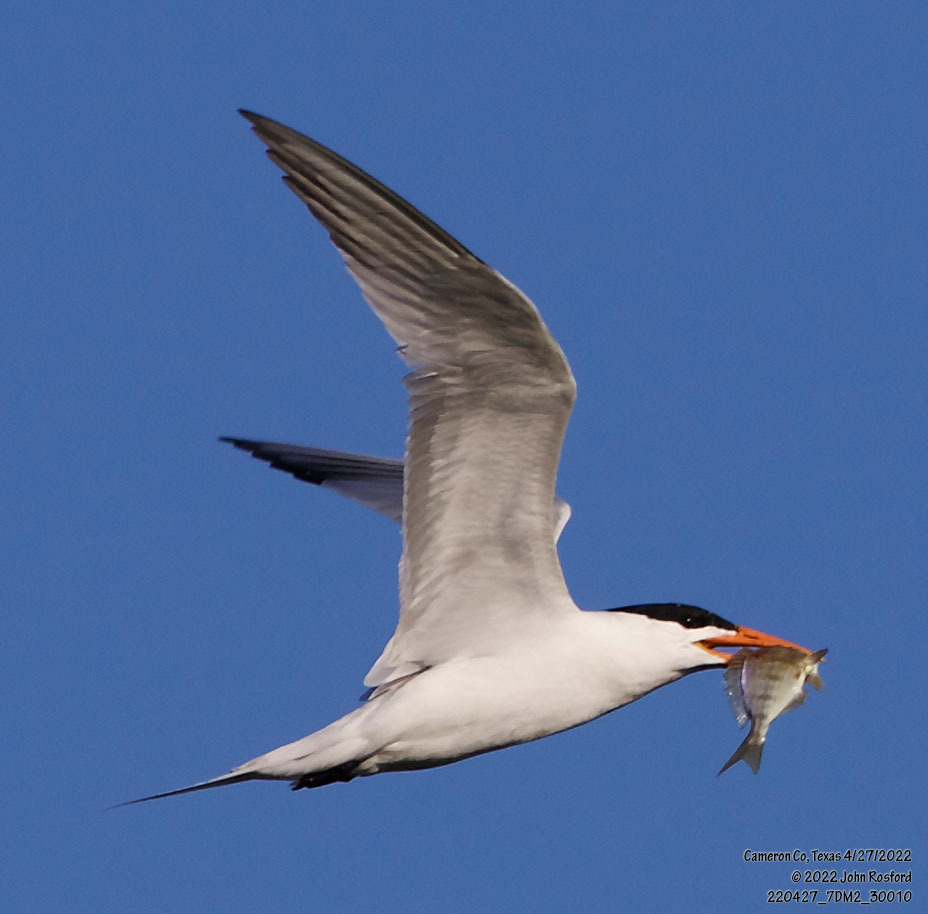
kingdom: Animalia
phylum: Chordata
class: Aves
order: Charadriiformes
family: Laridae
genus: Thalasseus
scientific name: Thalasseus maximus
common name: Royal tern
